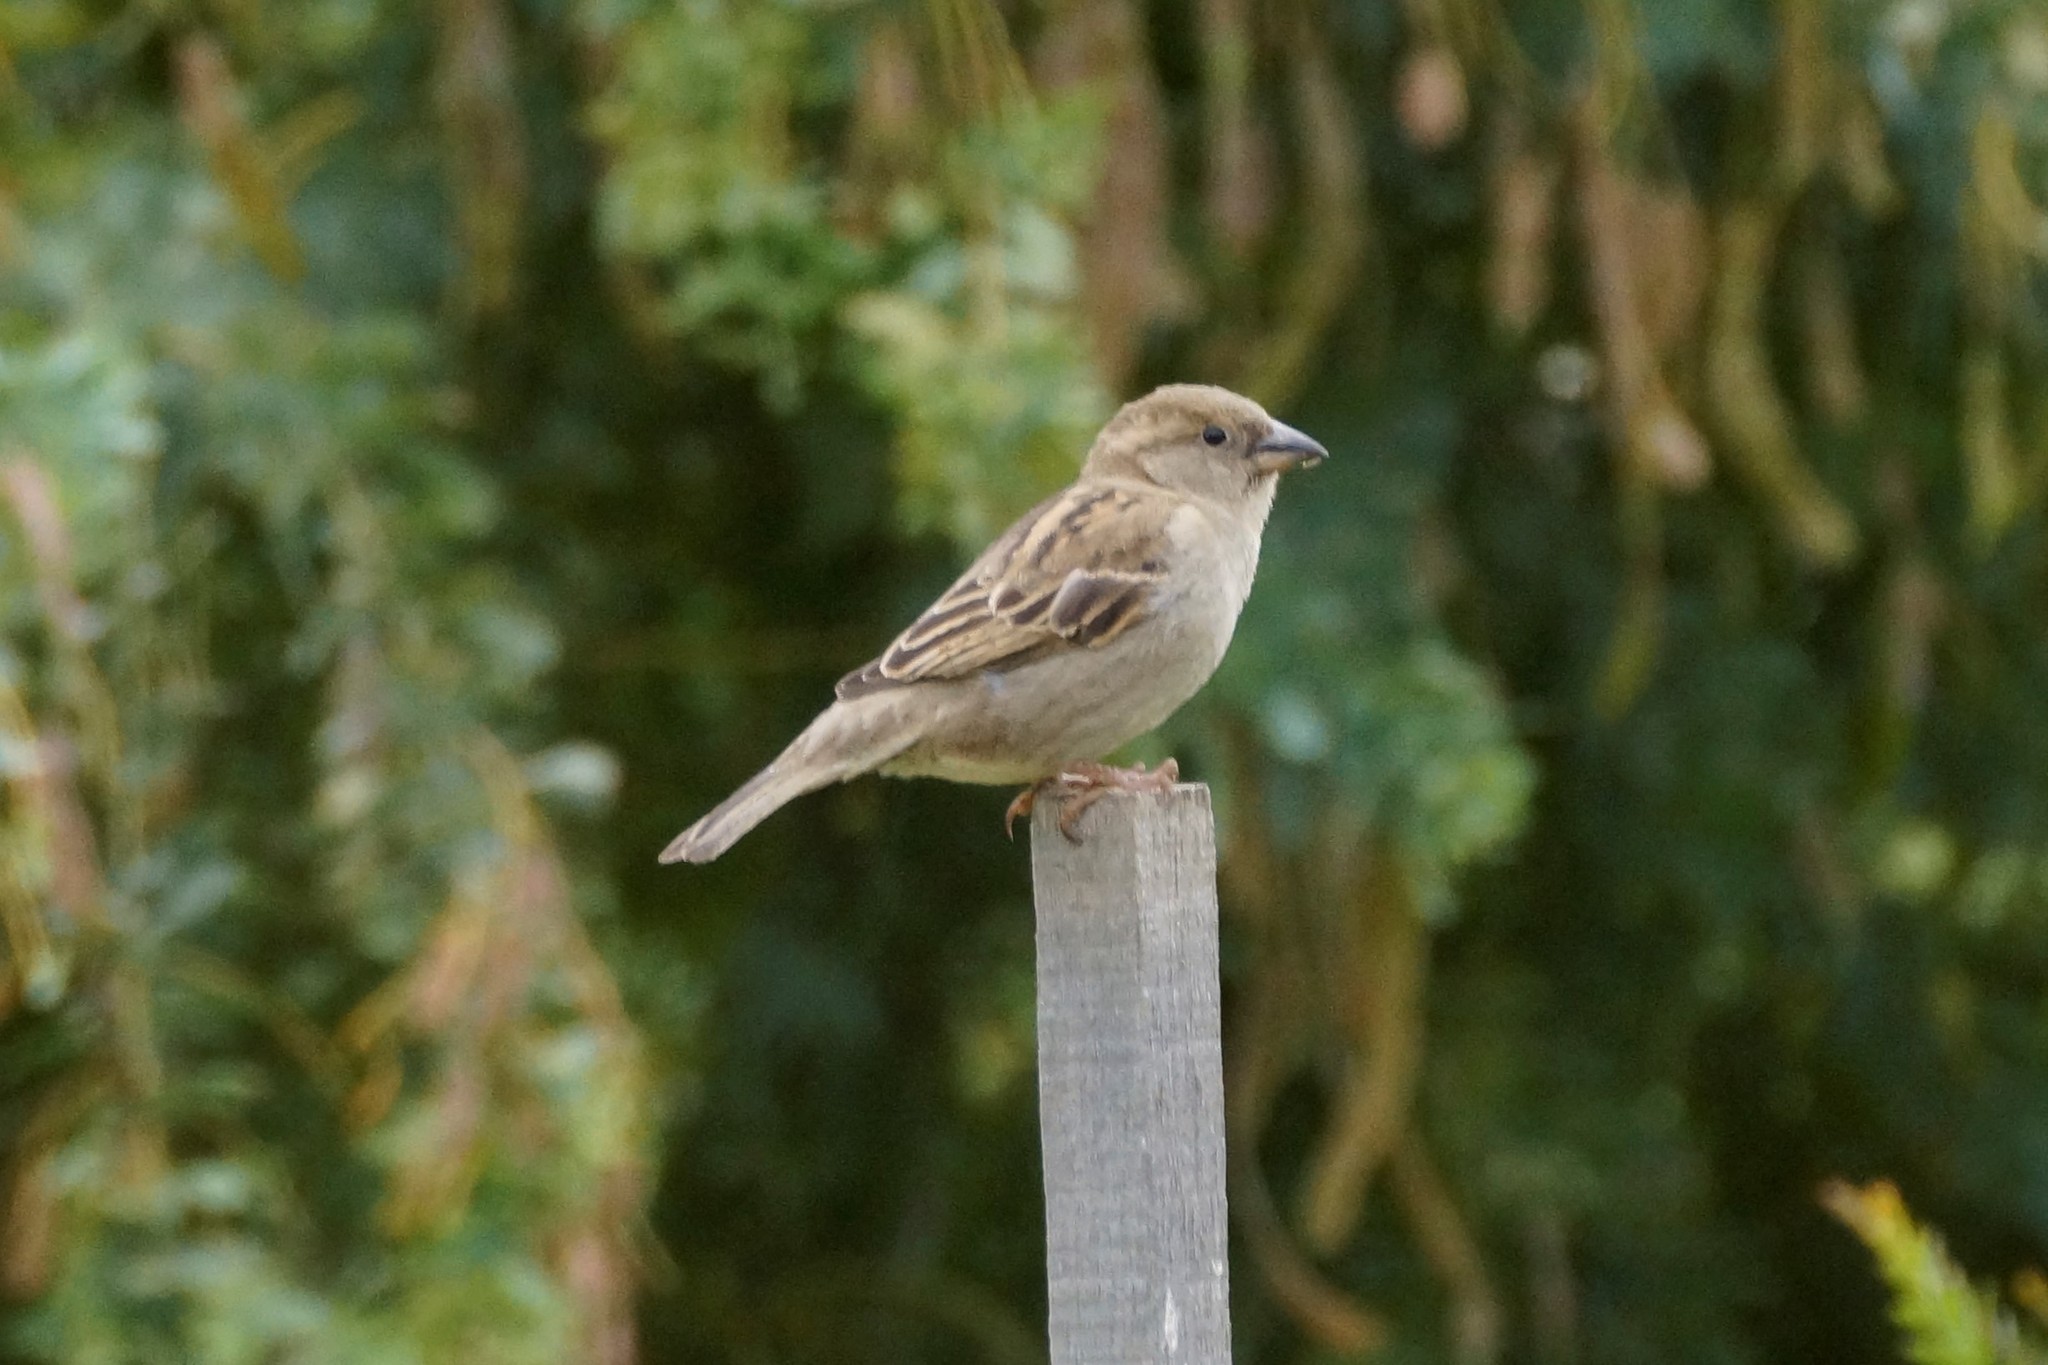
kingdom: Animalia
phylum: Chordata
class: Aves
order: Passeriformes
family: Passeridae
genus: Passer
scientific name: Passer domesticus
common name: House sparrow
